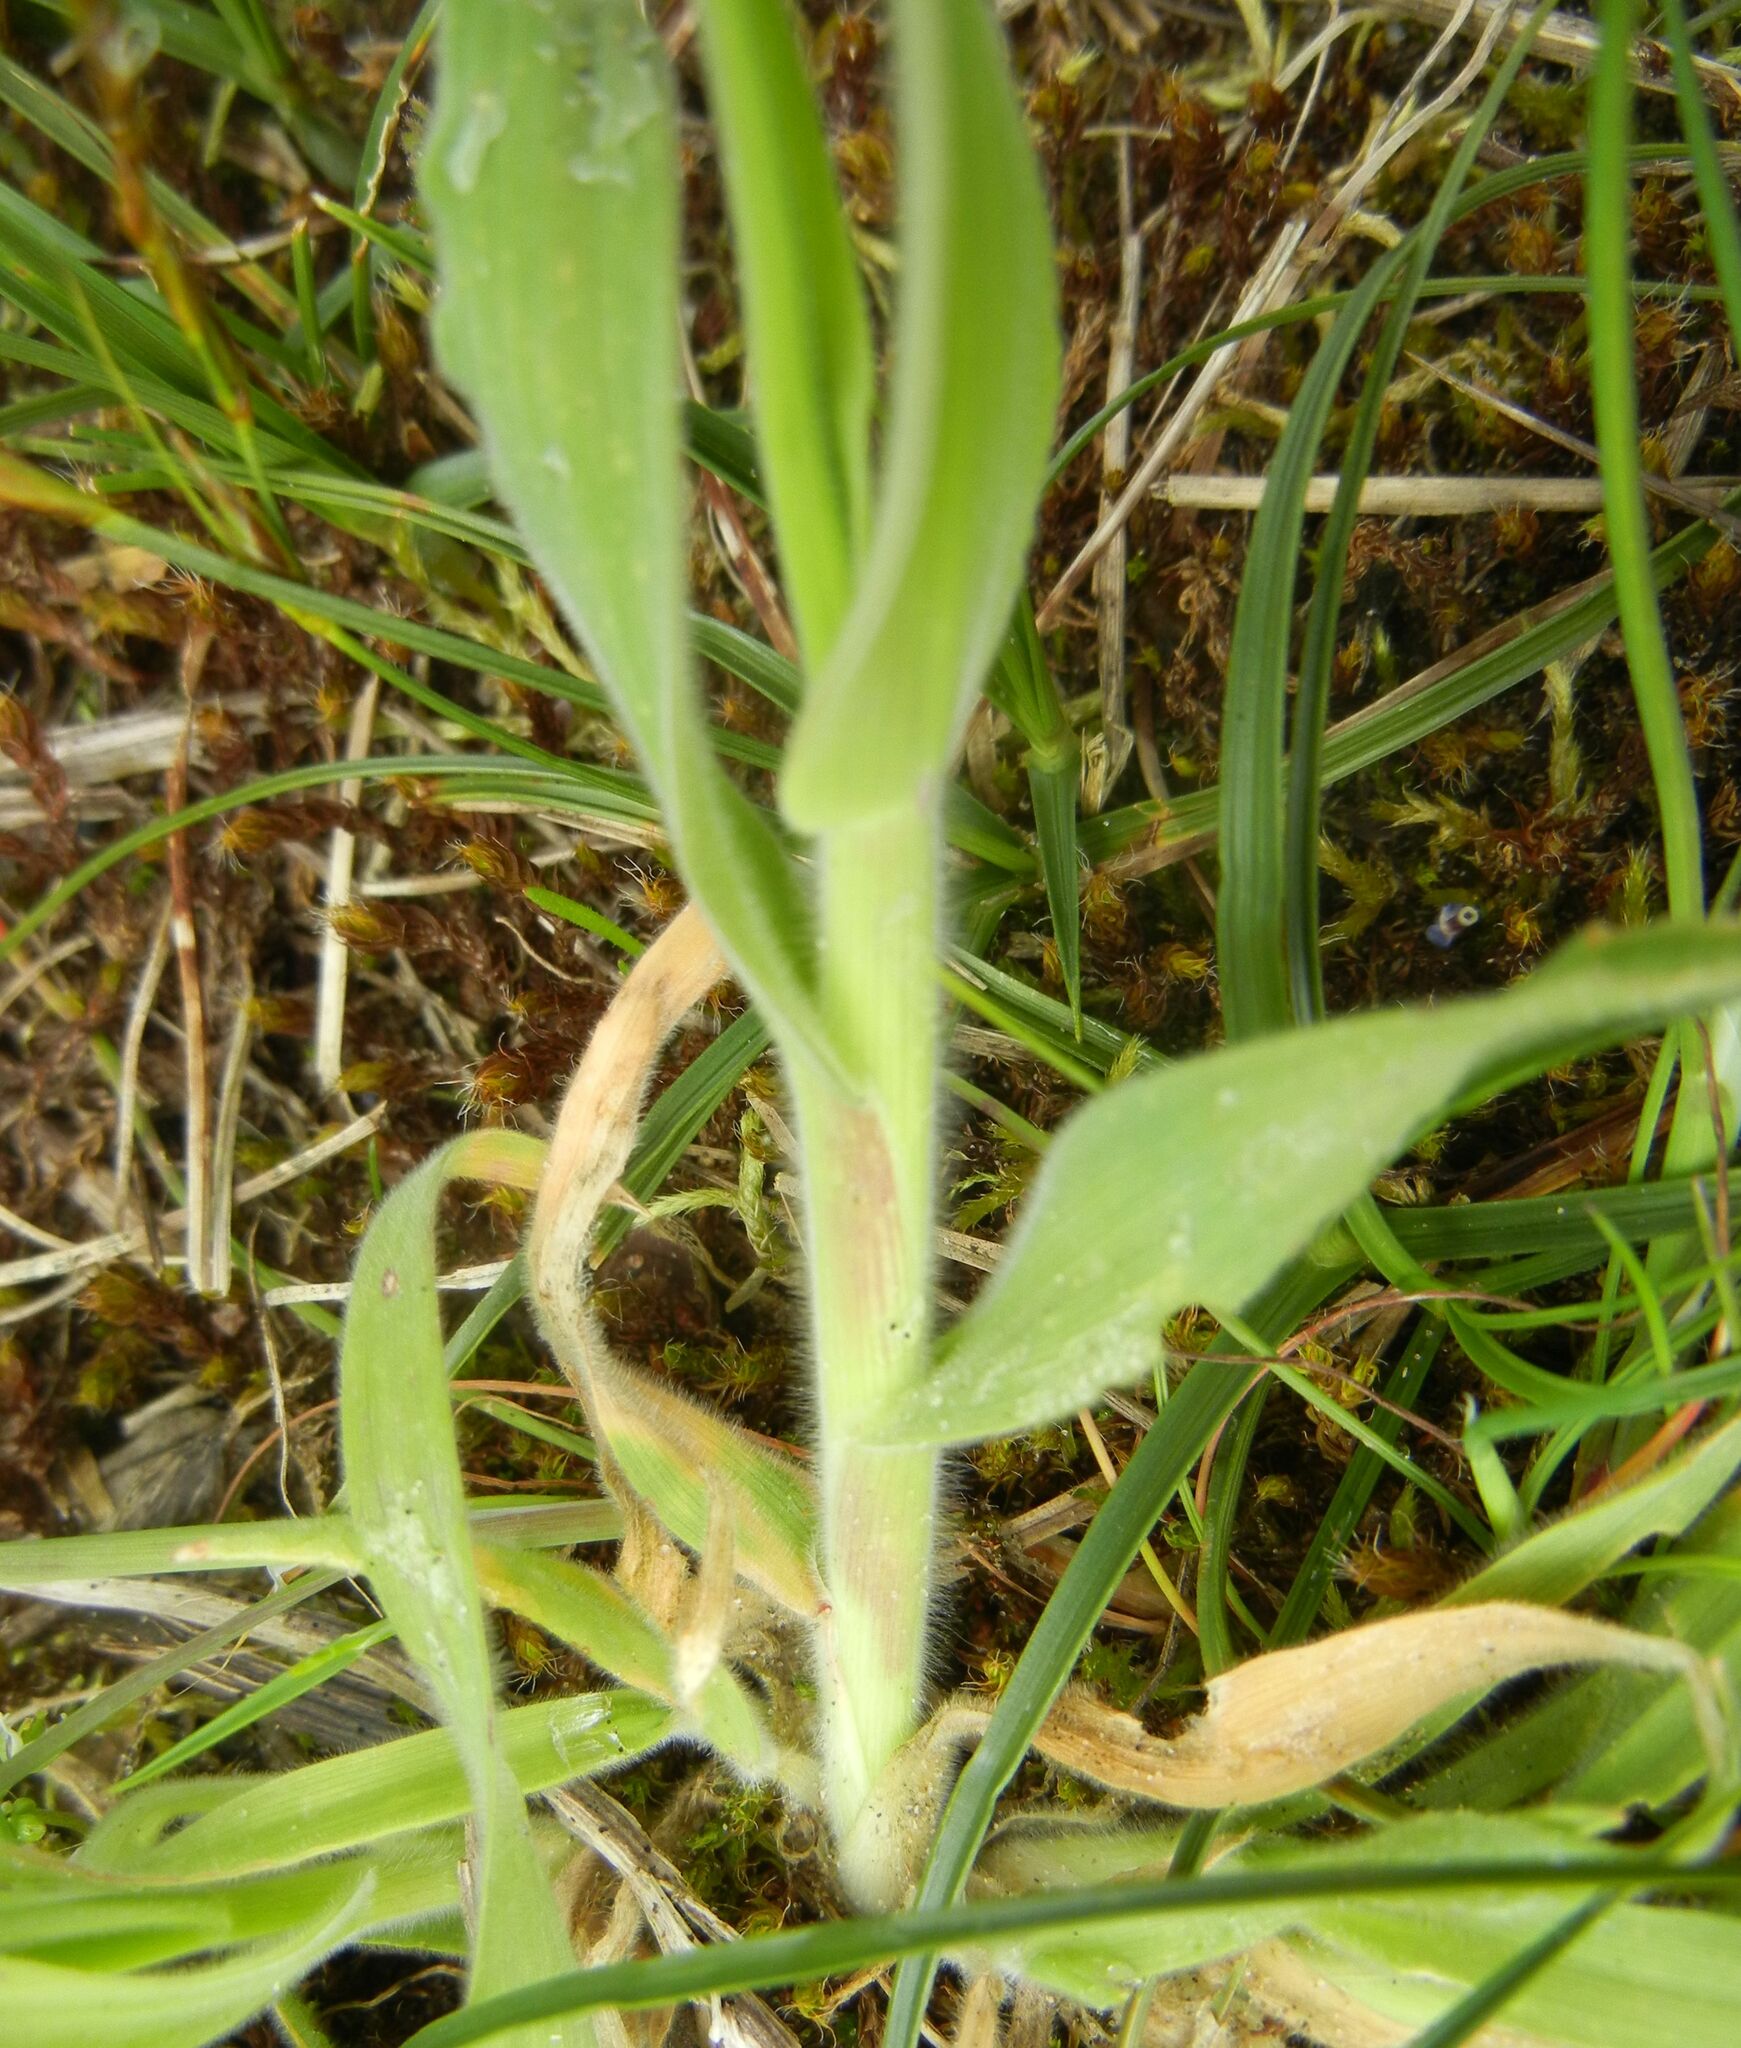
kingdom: Plantae
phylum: Tracheophyta
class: Liliopsida
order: Poales
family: Poaceae
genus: Lagurus
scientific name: Lagurus ovatus
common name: Hare's-tail
